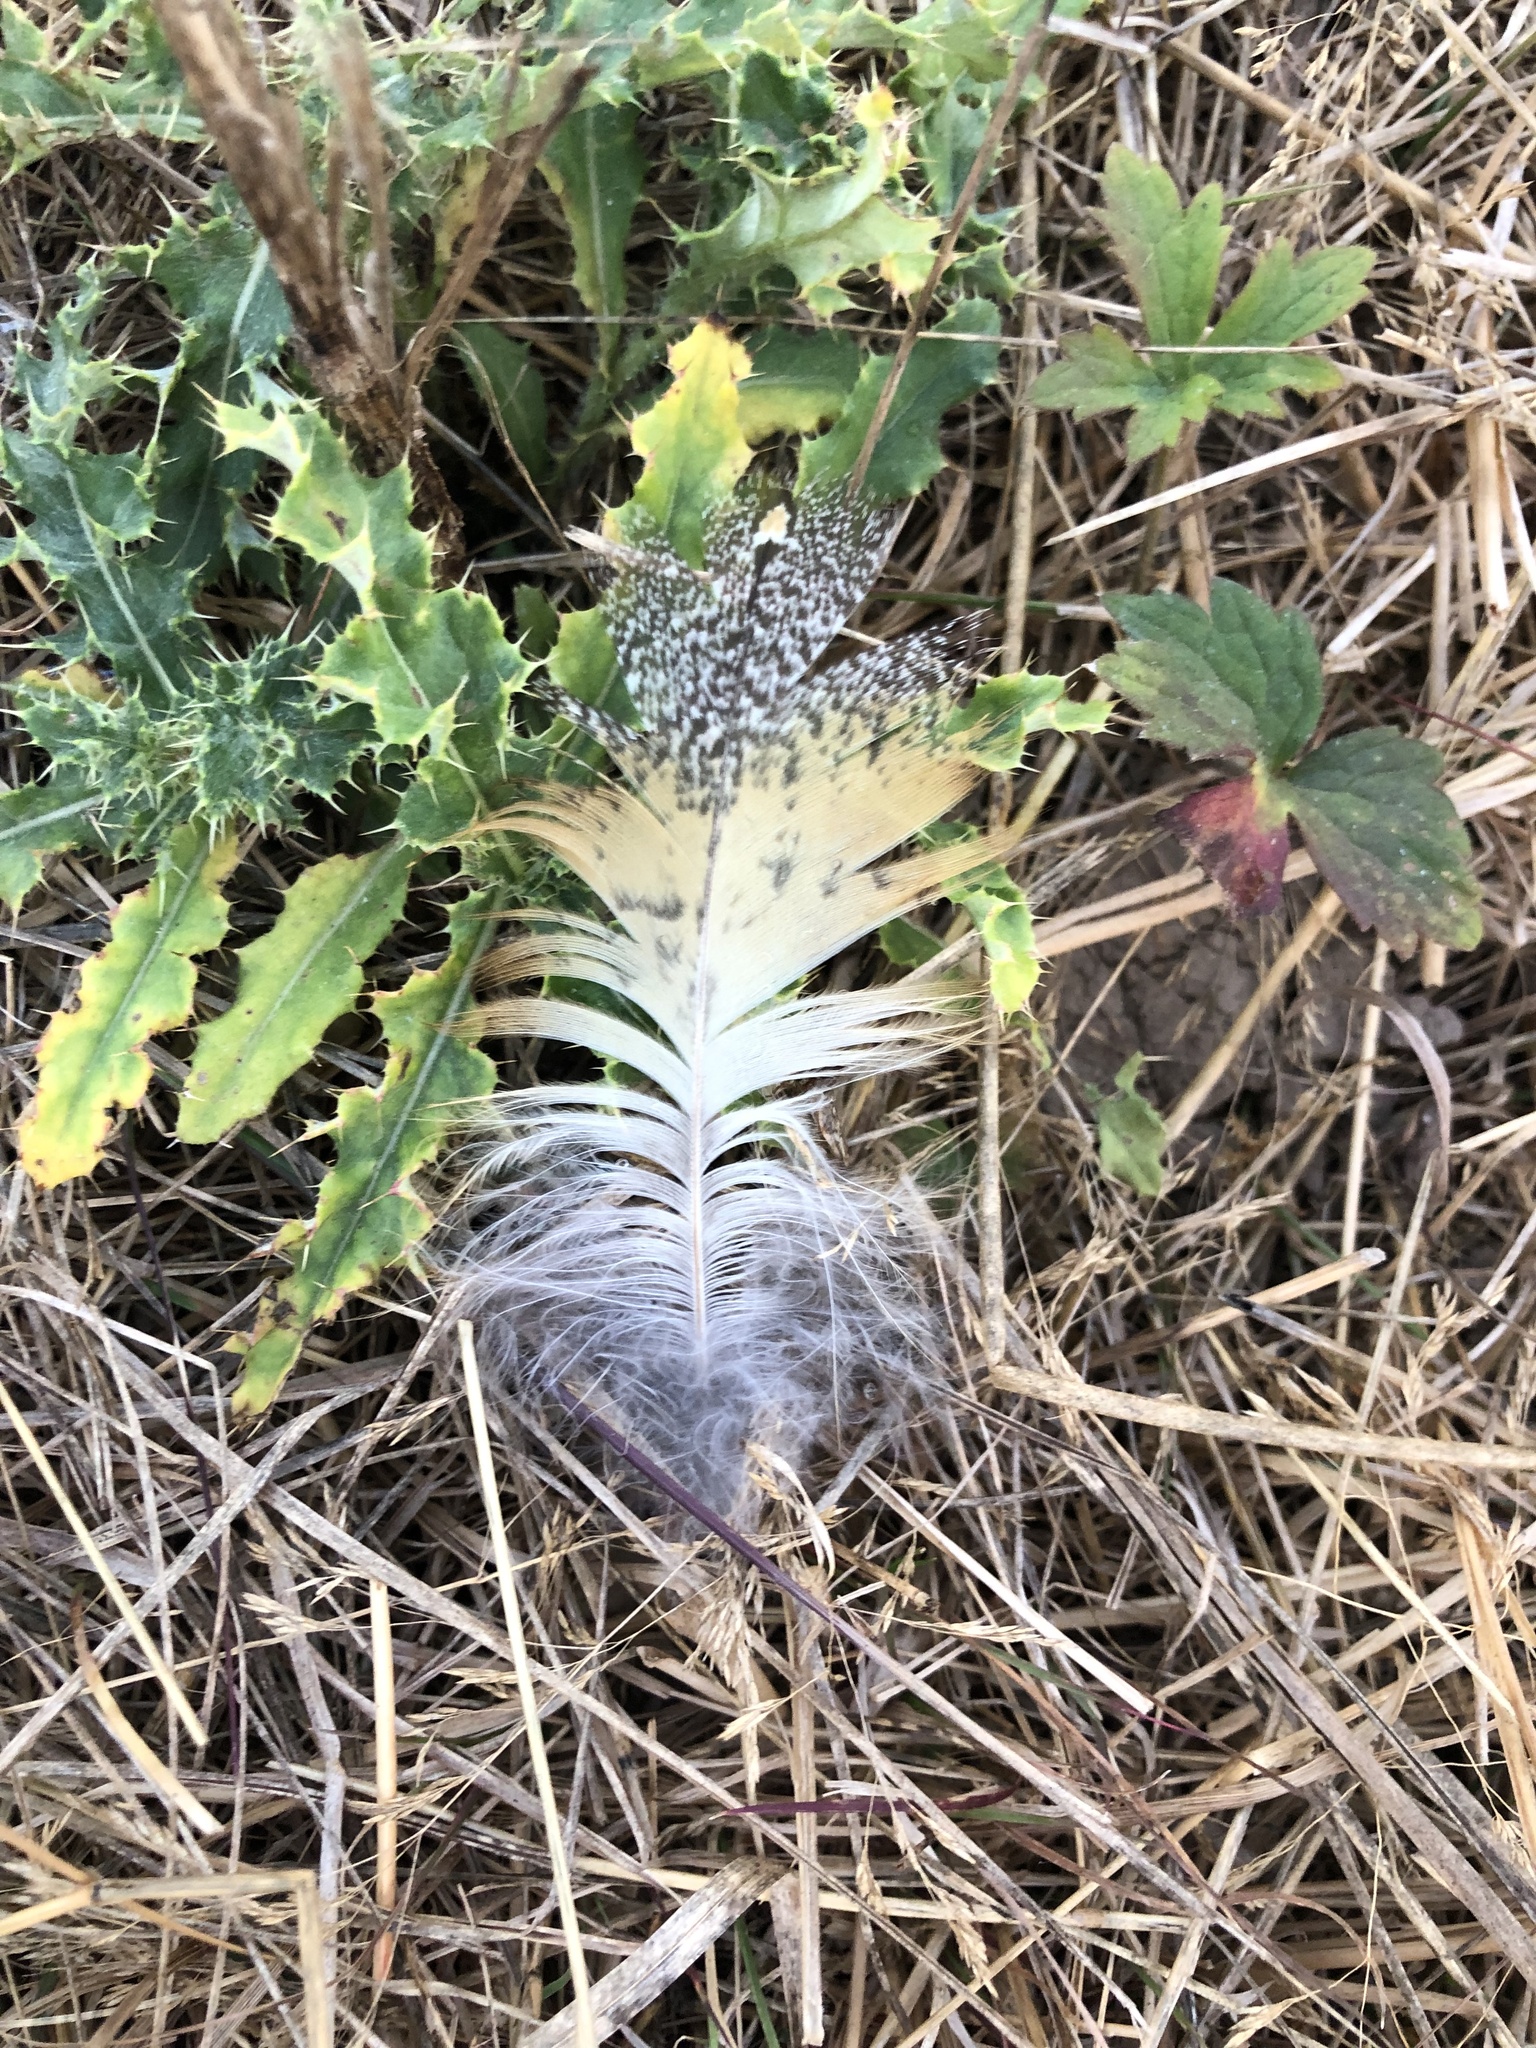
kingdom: Animalia
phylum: Chordata
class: Aves
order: Strigiformes
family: Tytonidae
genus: Tyto
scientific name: Tyto alba
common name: Barn owl
